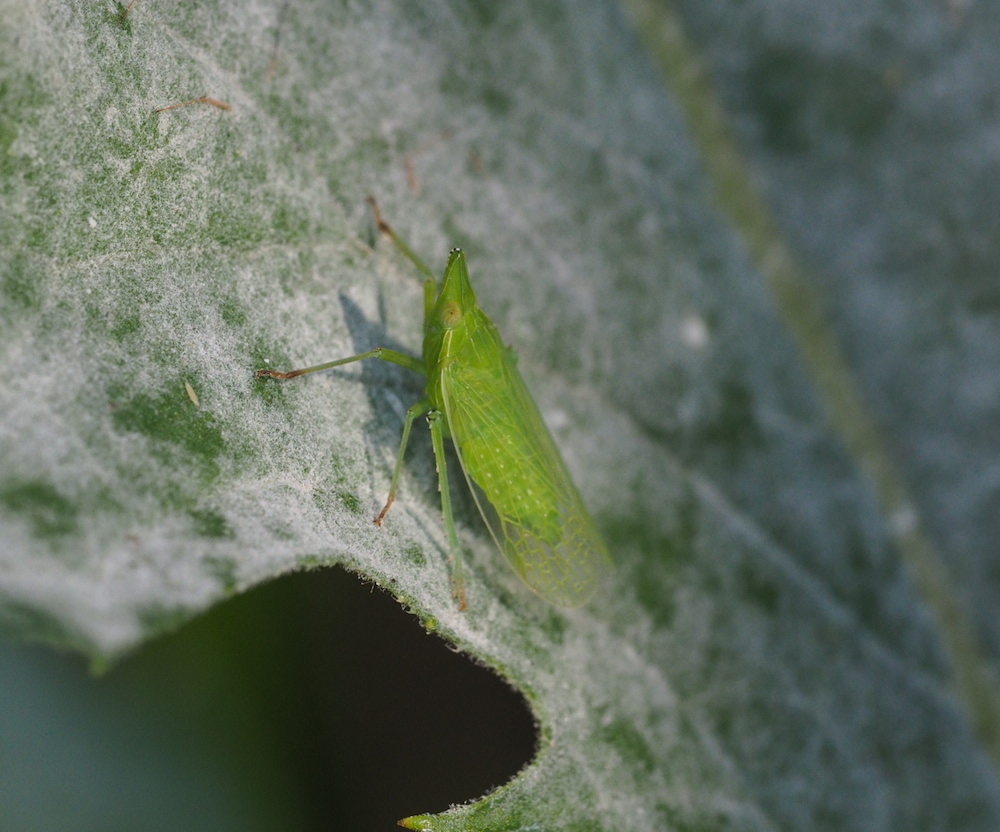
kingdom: Animalia
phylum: Arthropoda
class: Insecta
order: Hemiptera
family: Dictyopharidae
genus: Dictyophara
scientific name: Dictyophara europaea
